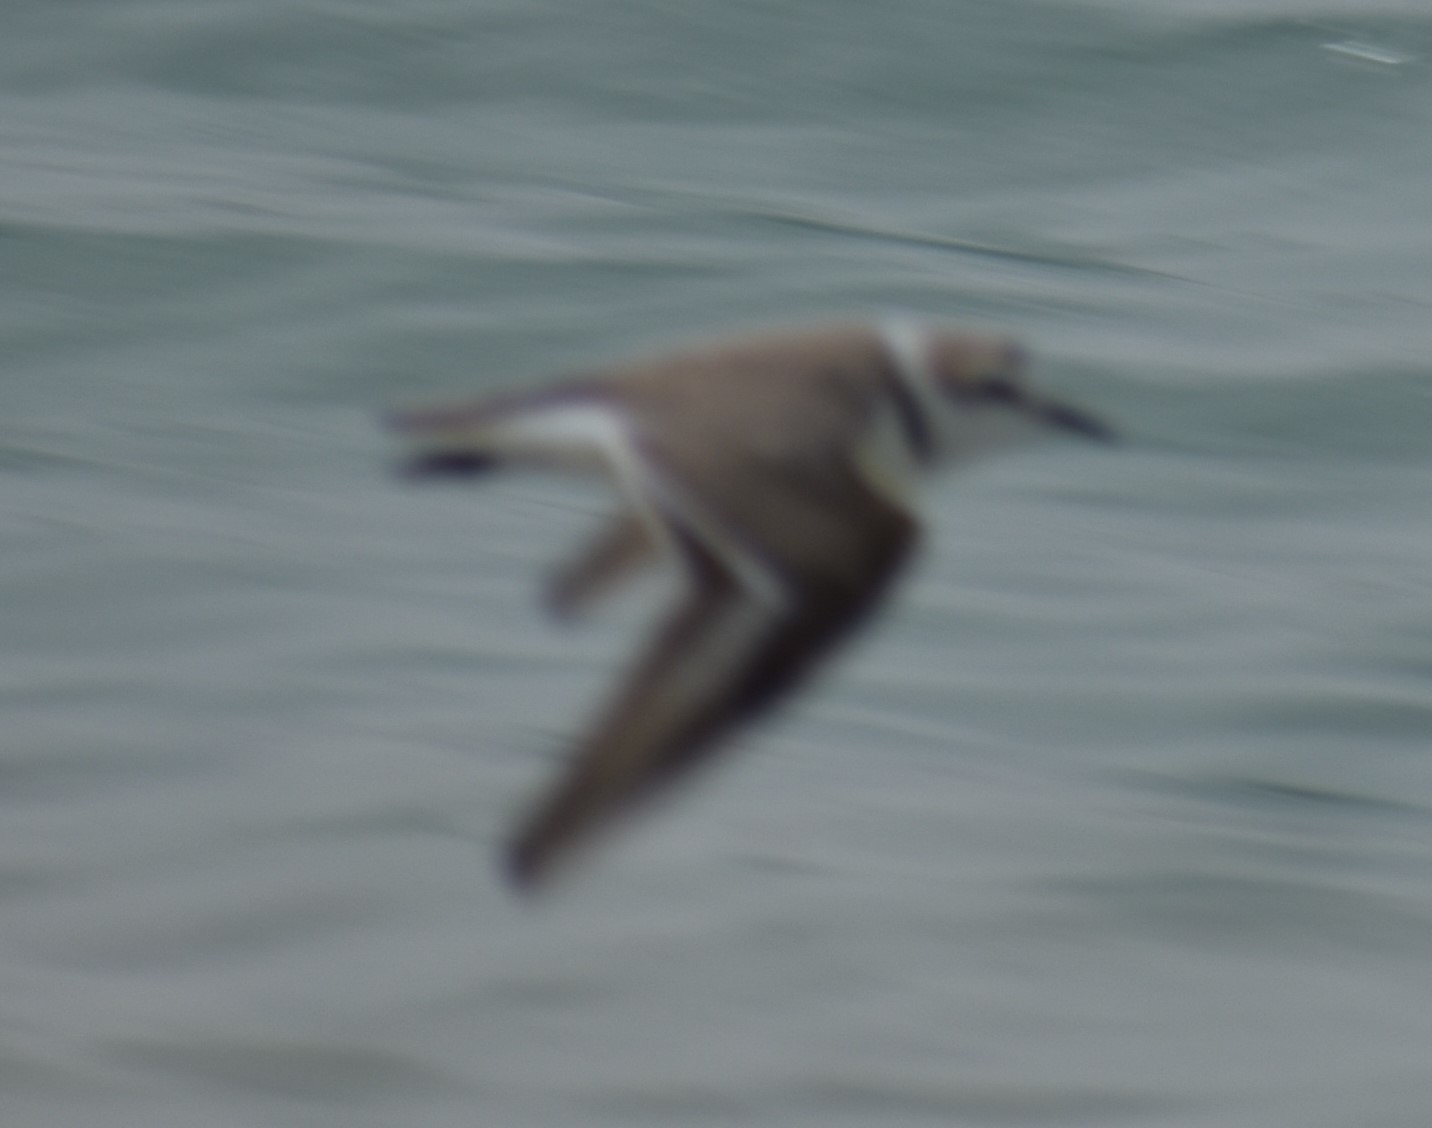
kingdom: Animalia
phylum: Chordata
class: Aves
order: Charadriiformes
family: Charadriidae
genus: Charadrius
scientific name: Charadrius alexandrinus
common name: Kentish plover
